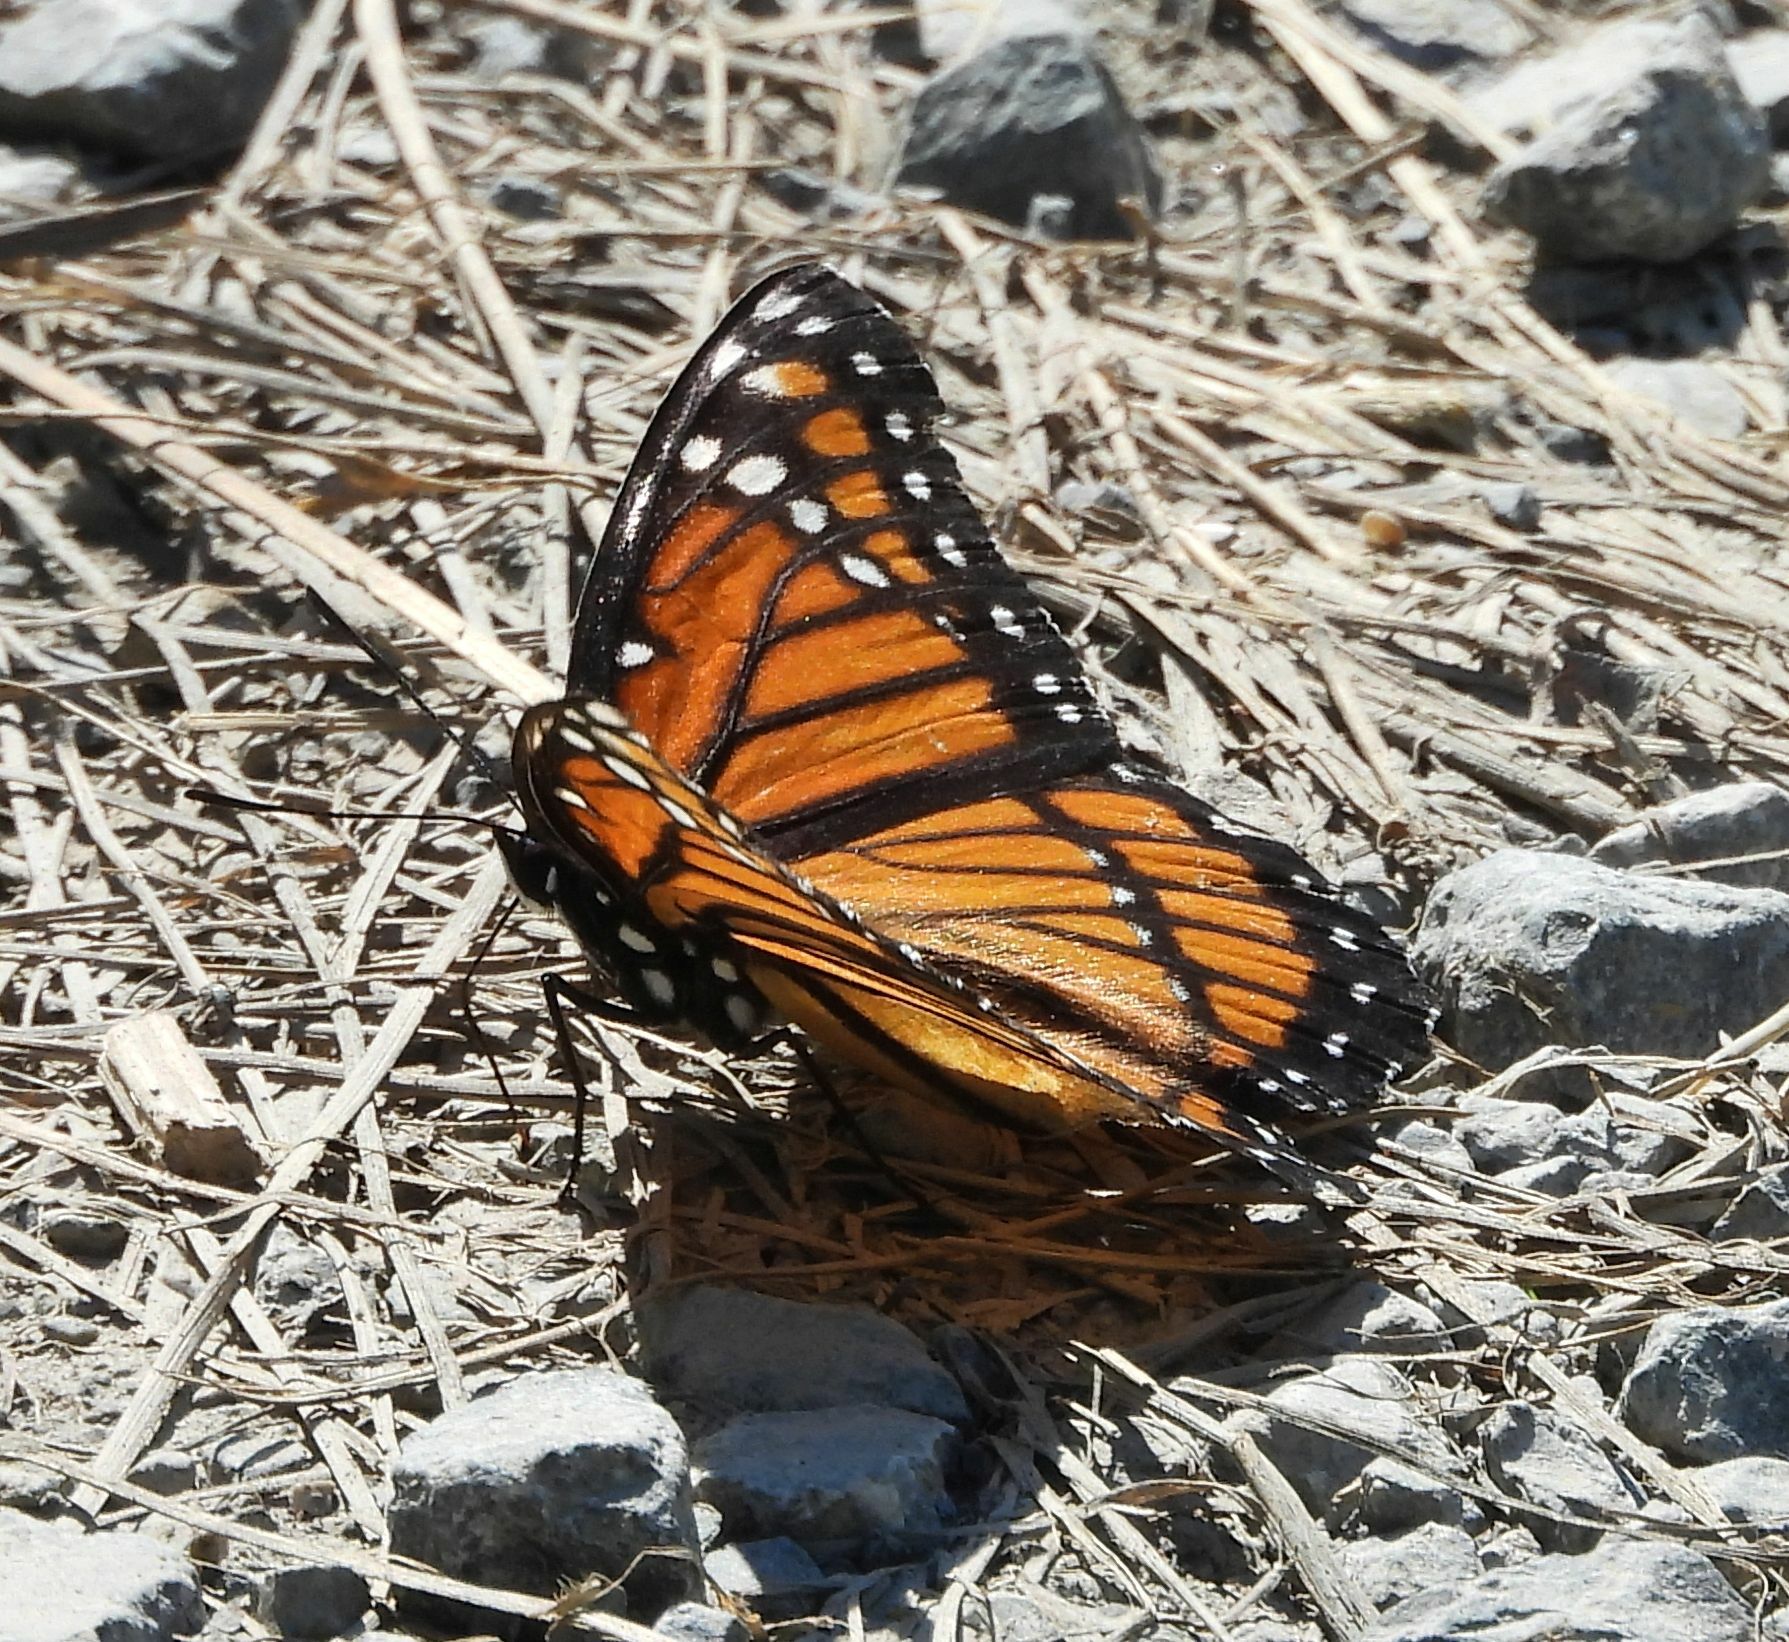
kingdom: Animalia
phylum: Arthropoda
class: Insecta
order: Lepidoptera
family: Nymphalidae
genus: Limenitis
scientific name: Limenitis archippus
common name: Viceroy
